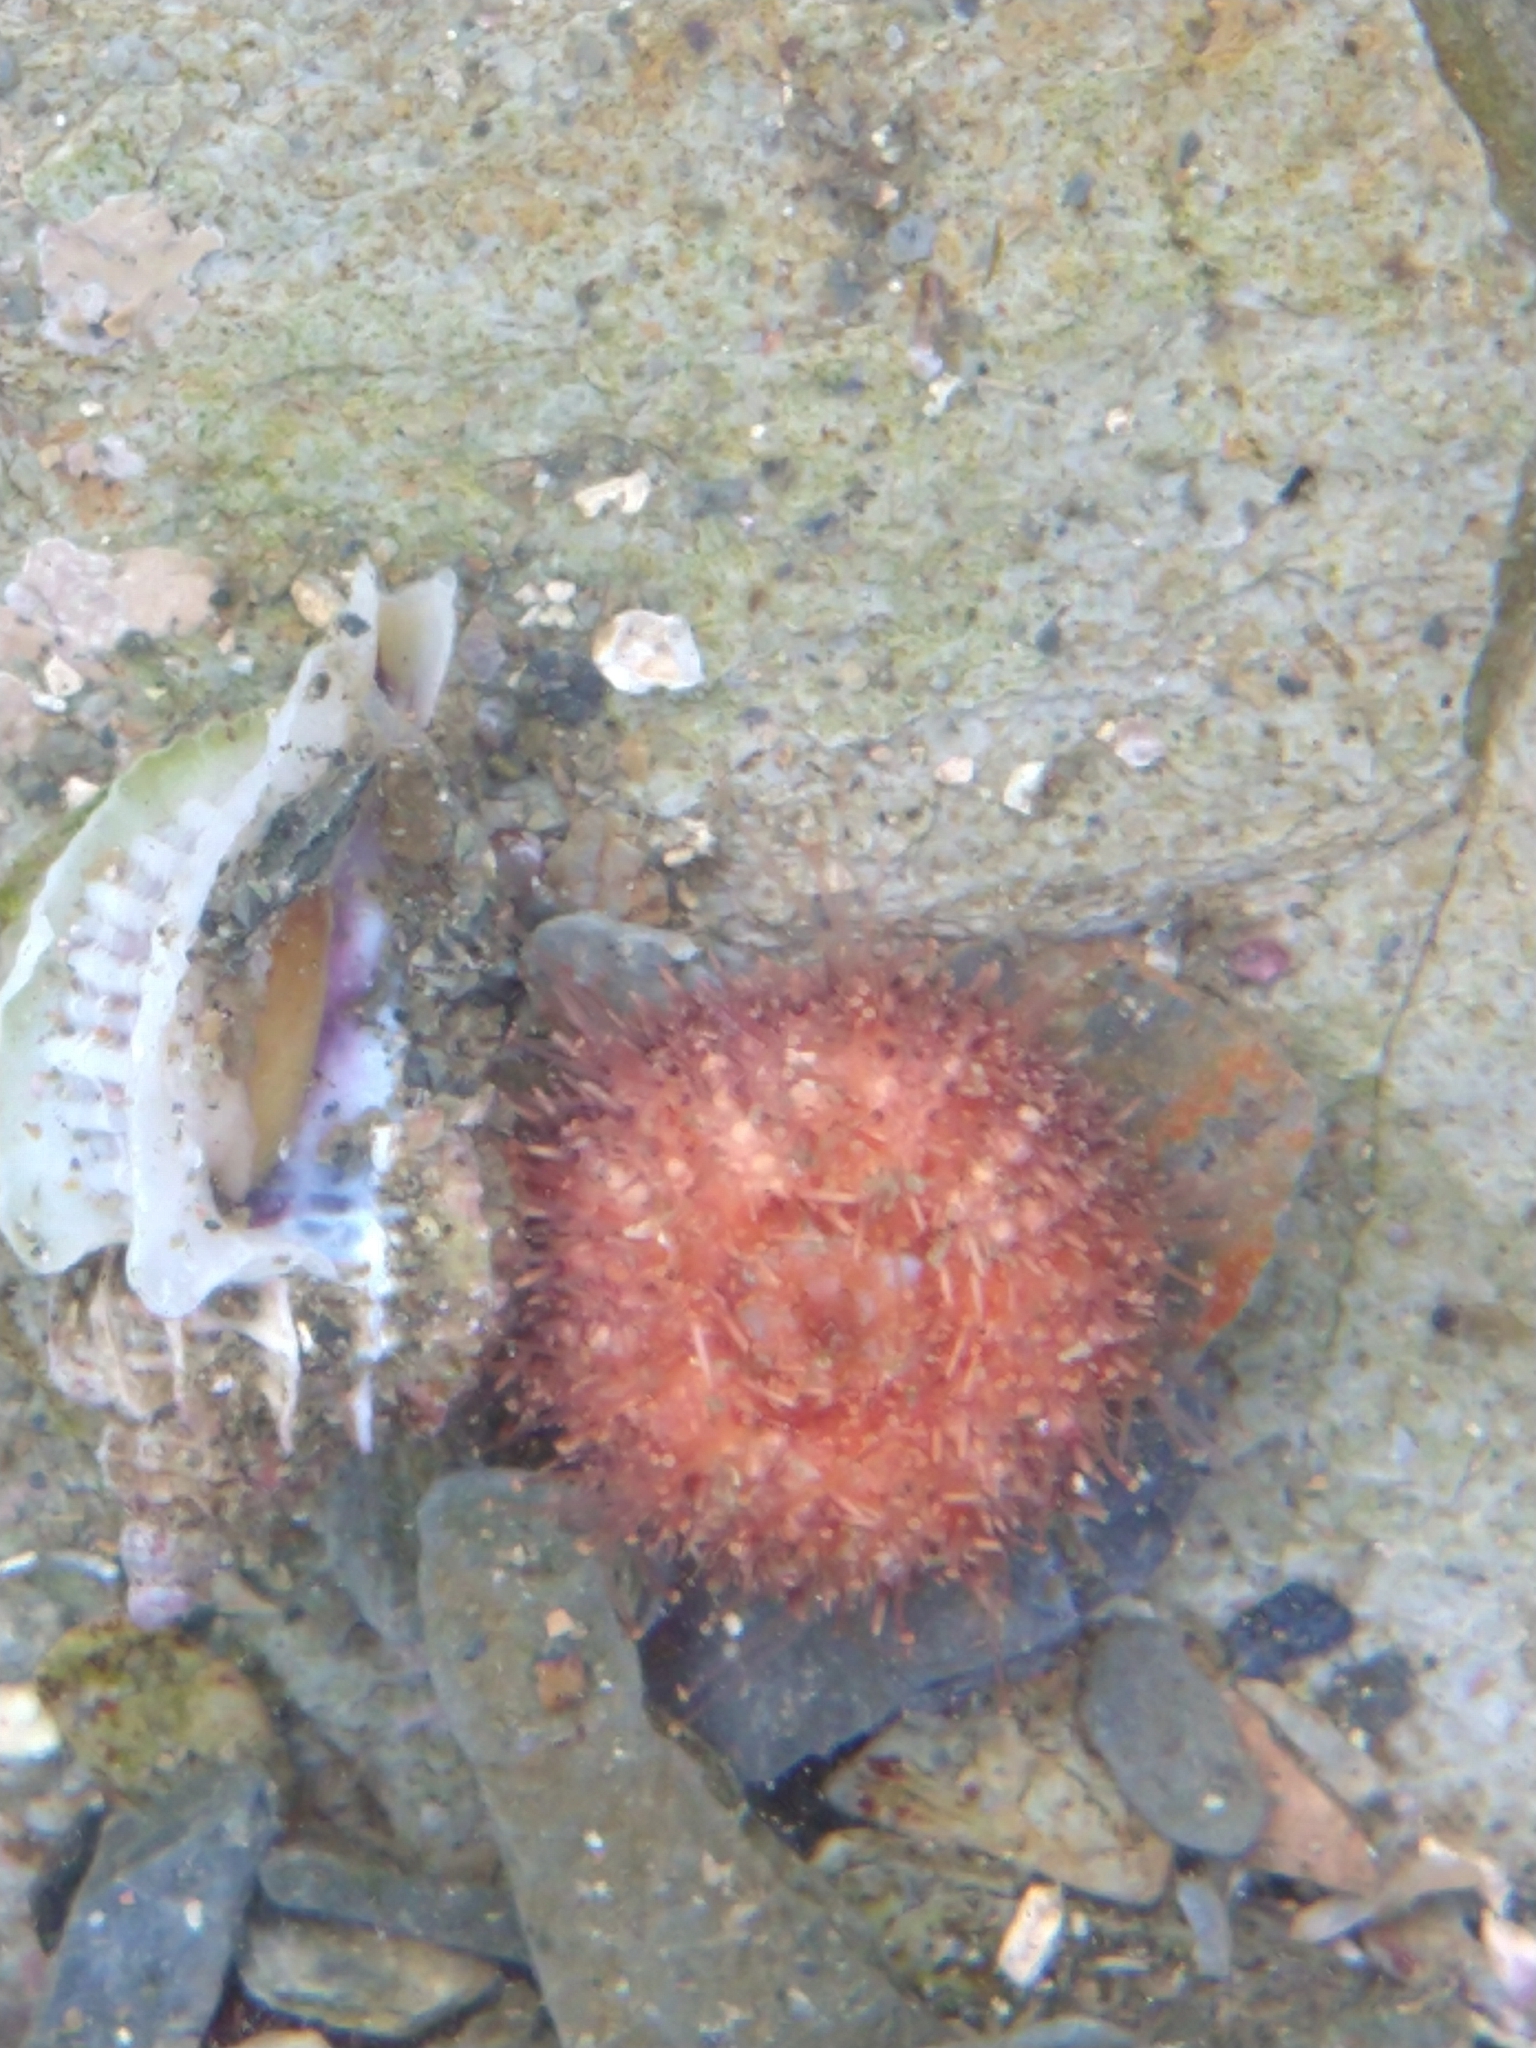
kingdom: Animalia
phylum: Echinodermata
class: Echinoidea
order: Camarodonta
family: Temnopleuridae
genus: Pseudechinus
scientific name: Pseudechinus magellanicus
